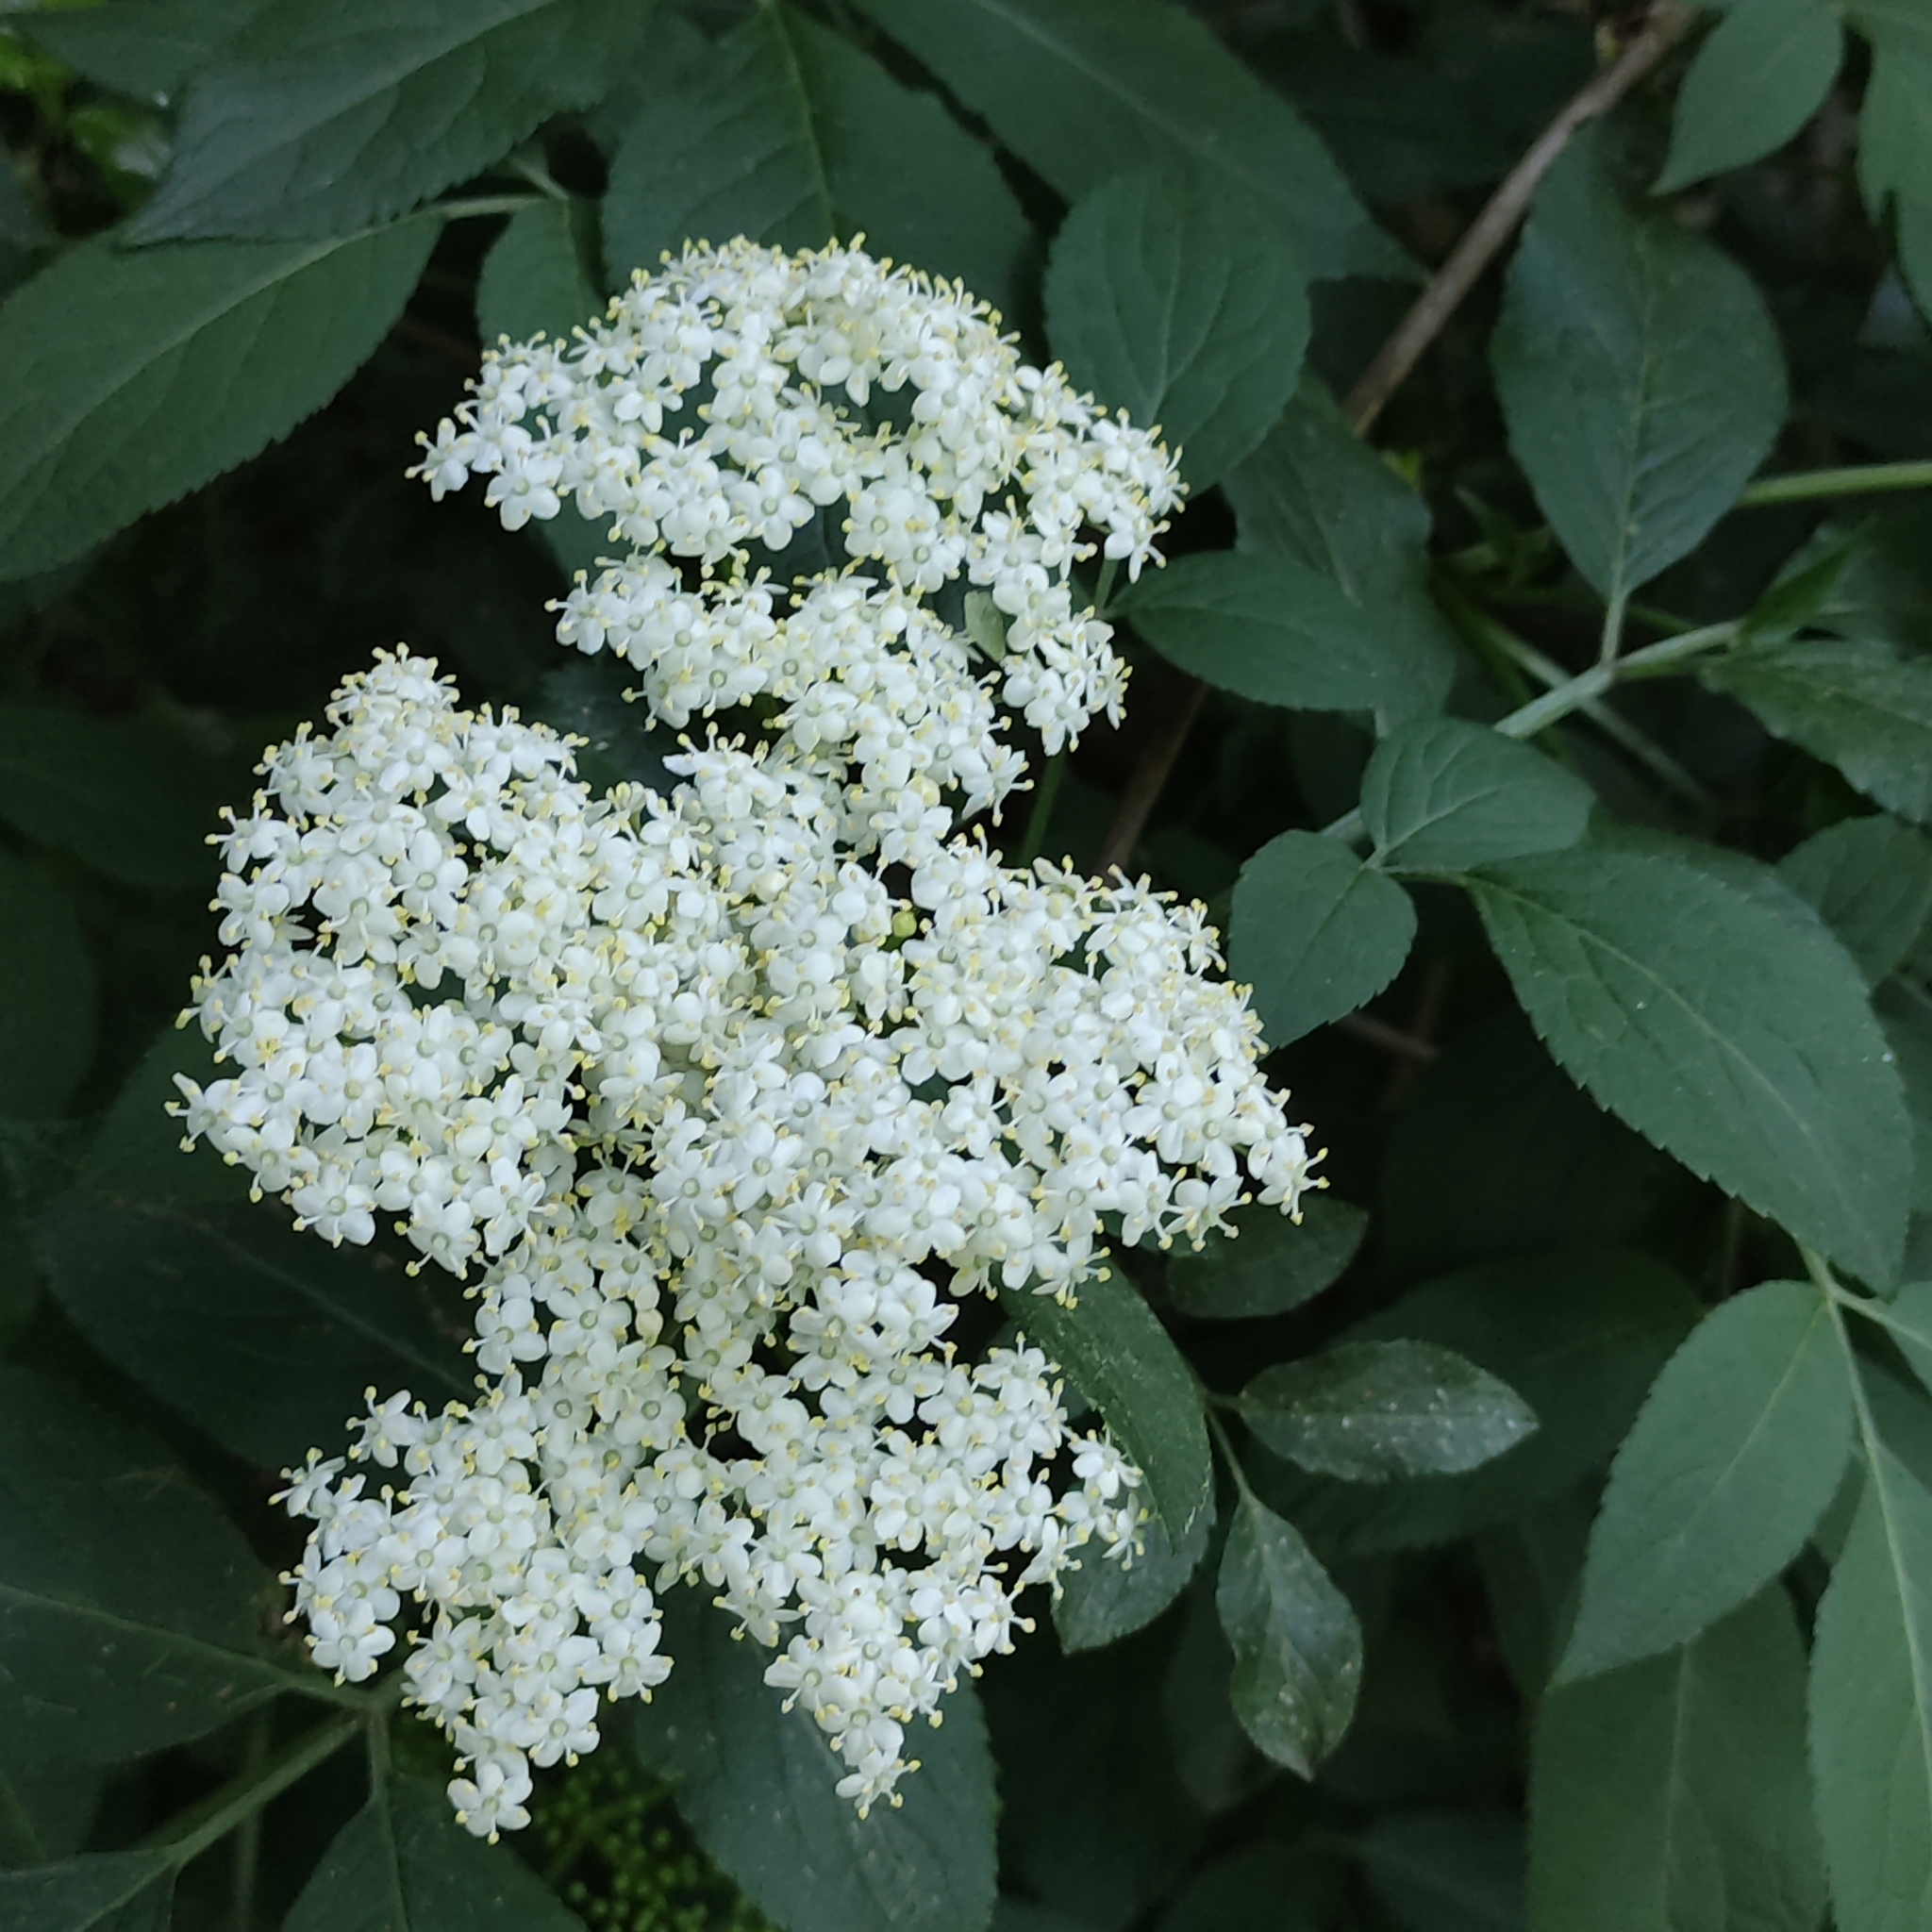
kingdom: Plantae
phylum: Tracheophyta
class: Magnoliopsida
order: Dipsacales
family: Viburnaceae
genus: Sambucus
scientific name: Sambucus nigra
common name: Elder
